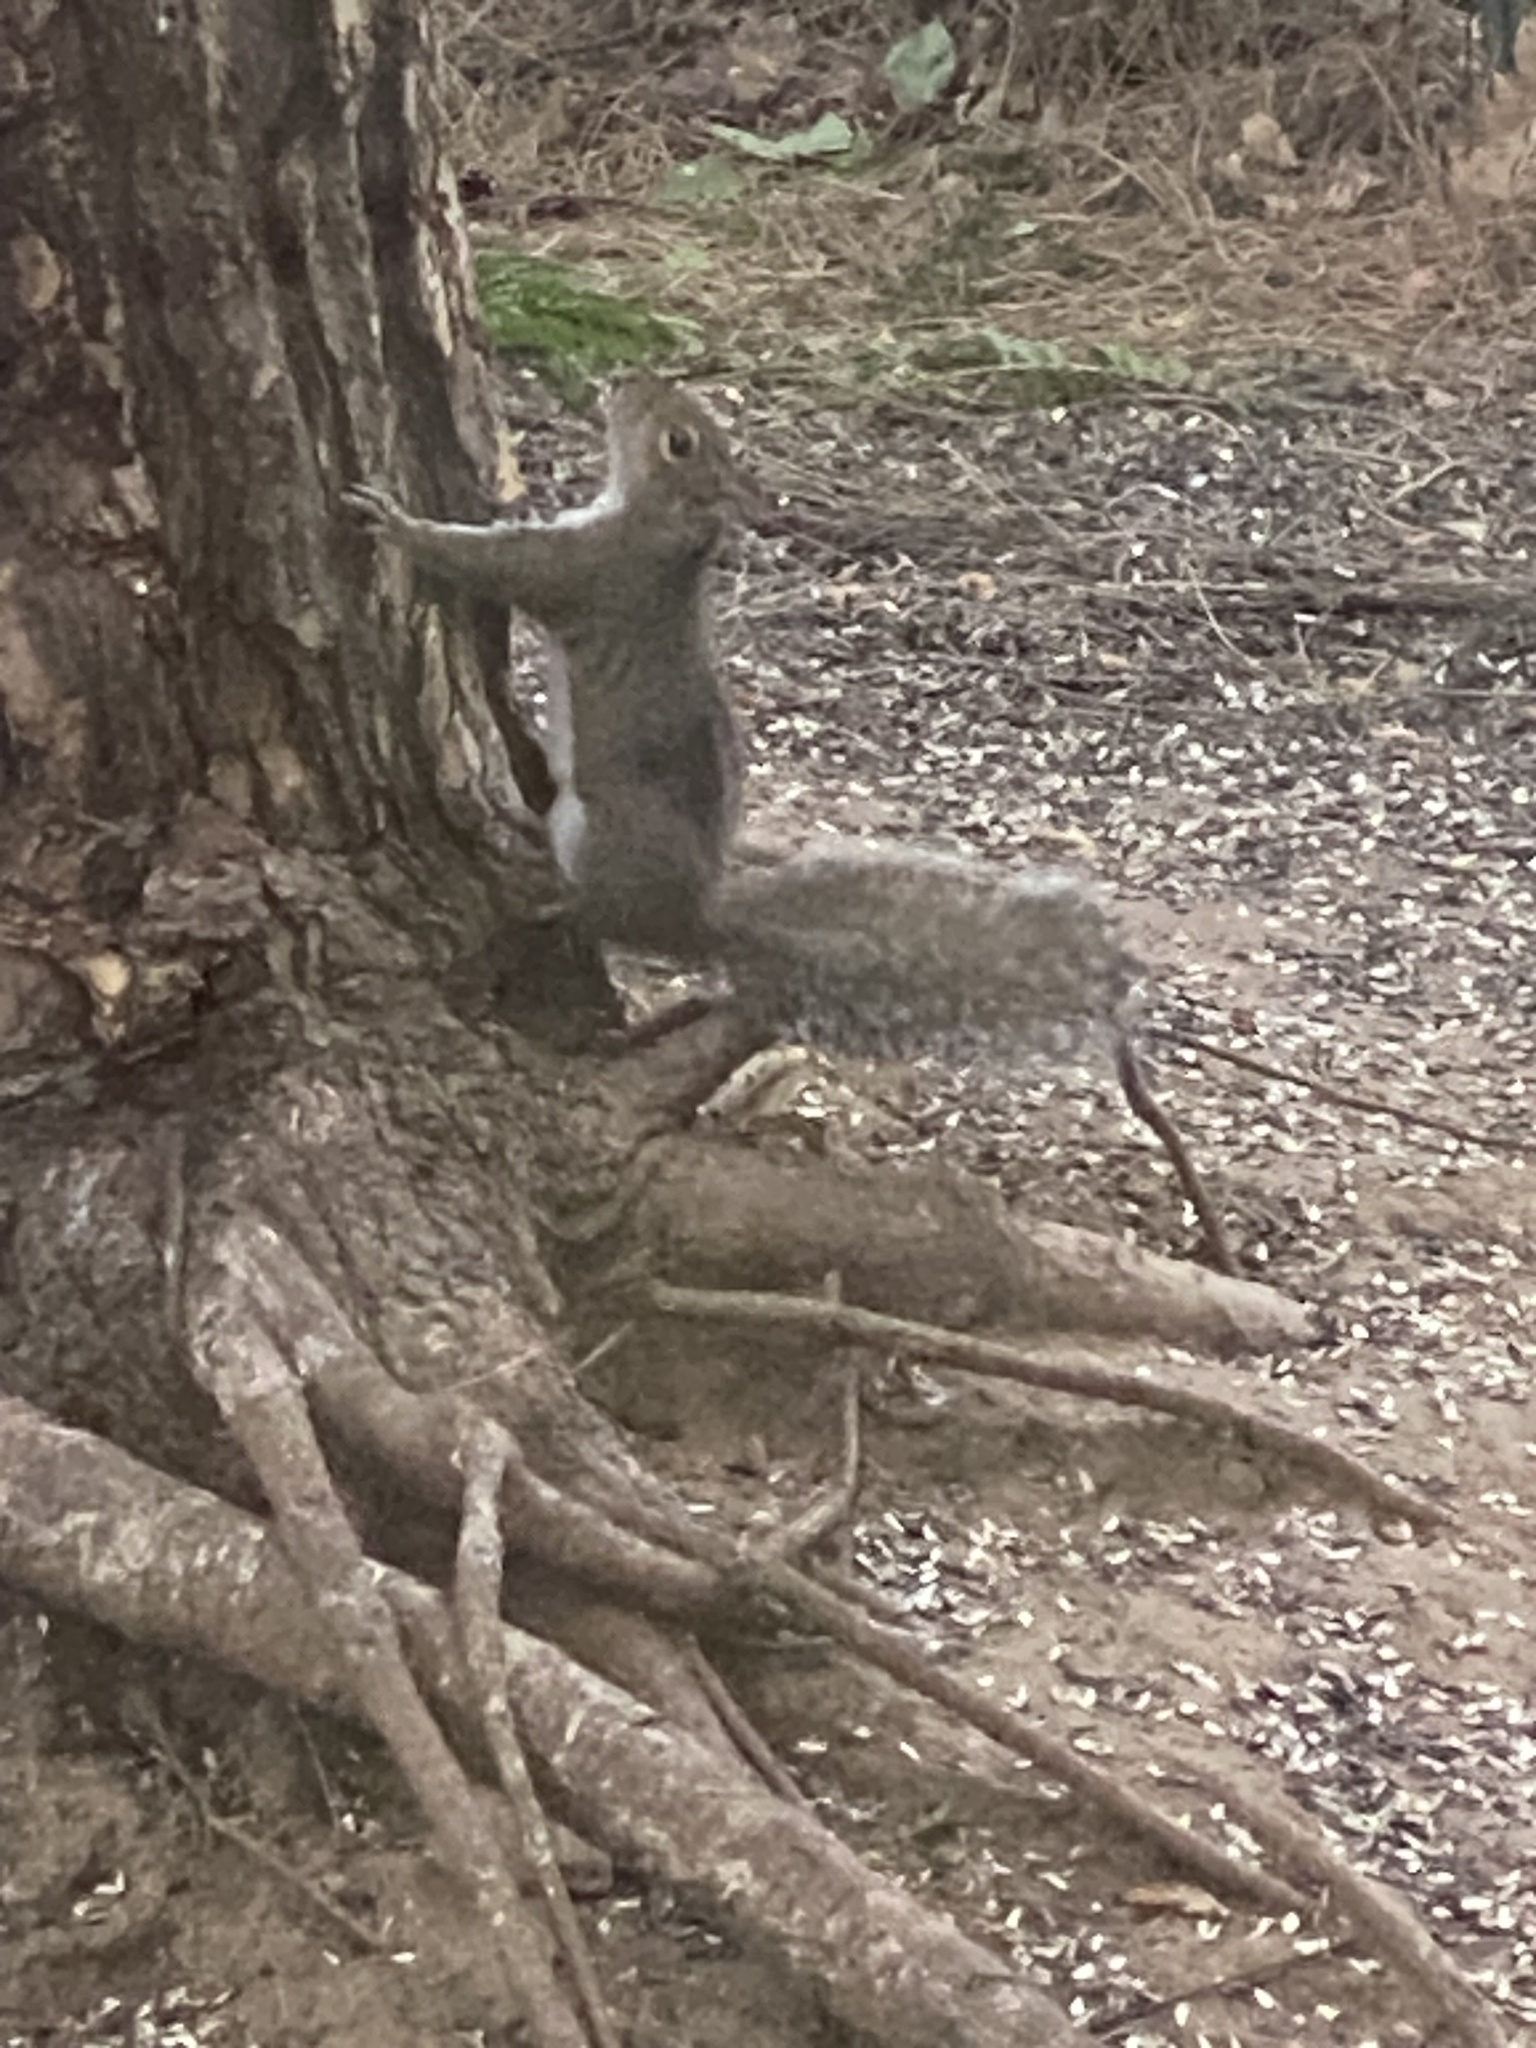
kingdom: Animalia
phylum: Chordata
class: Mammalia
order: Rodentia
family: Sciuridae
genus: Sciurus
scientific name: Sciurus carolinensis
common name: Eastern gray squirrel
